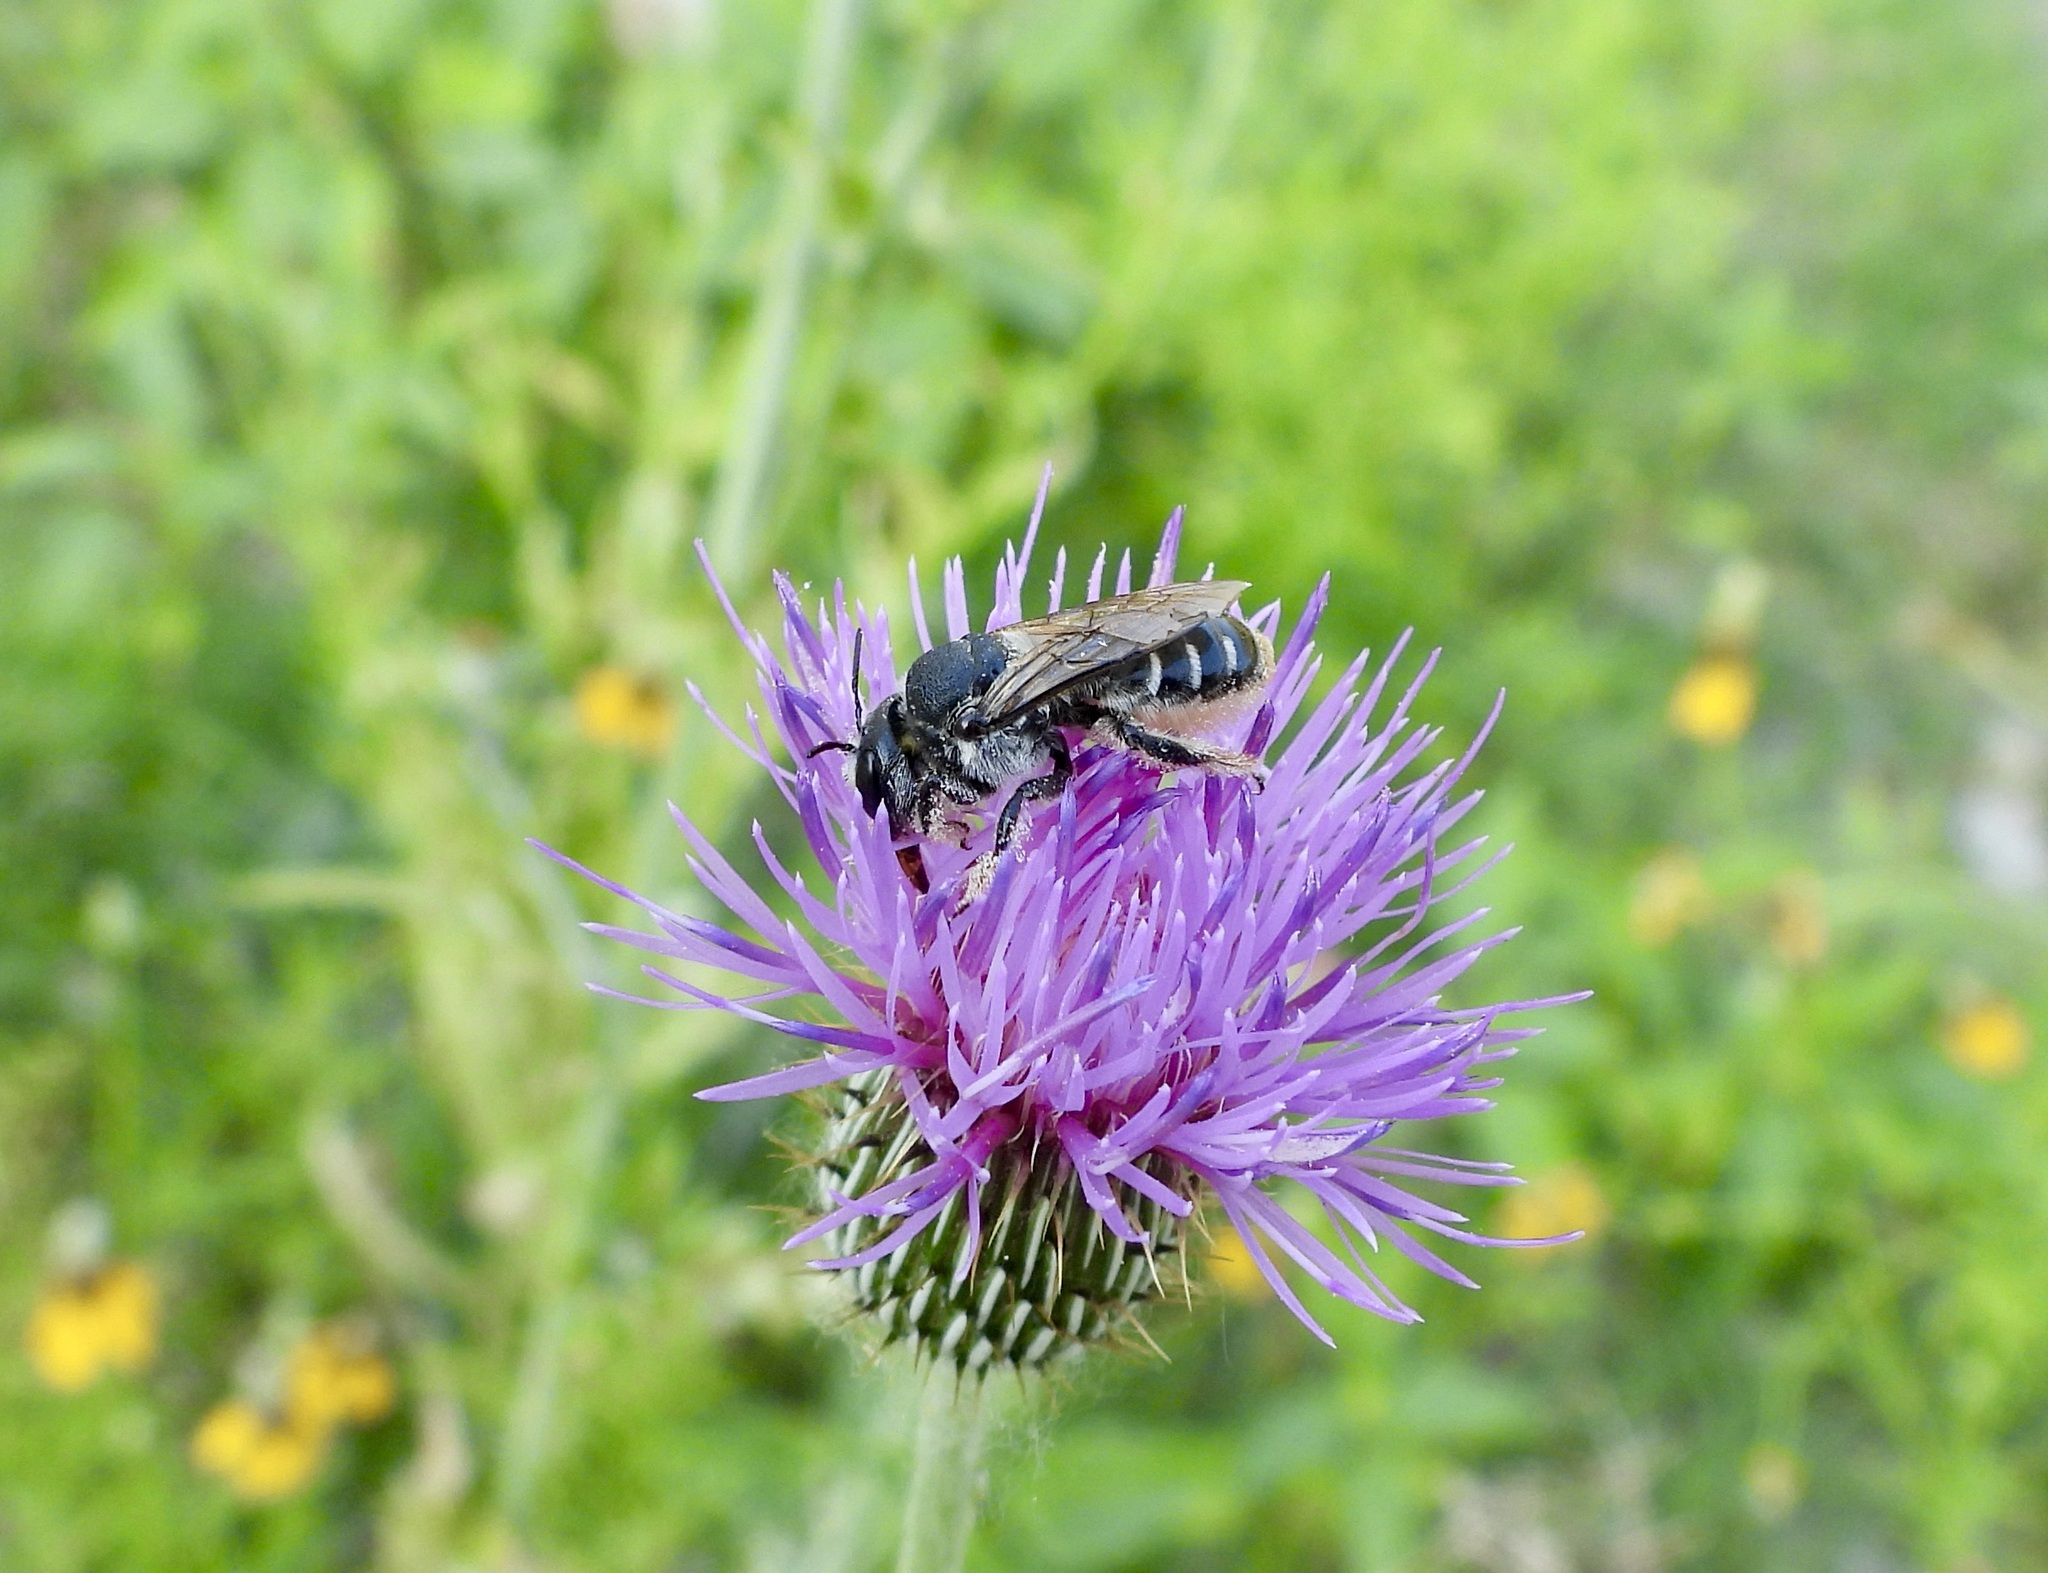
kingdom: Animalia
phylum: Arthropoda
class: Insecta
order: Hymenoptera
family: Megachilidae
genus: Lithurgopsis
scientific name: Lithurgopsis apicalis
